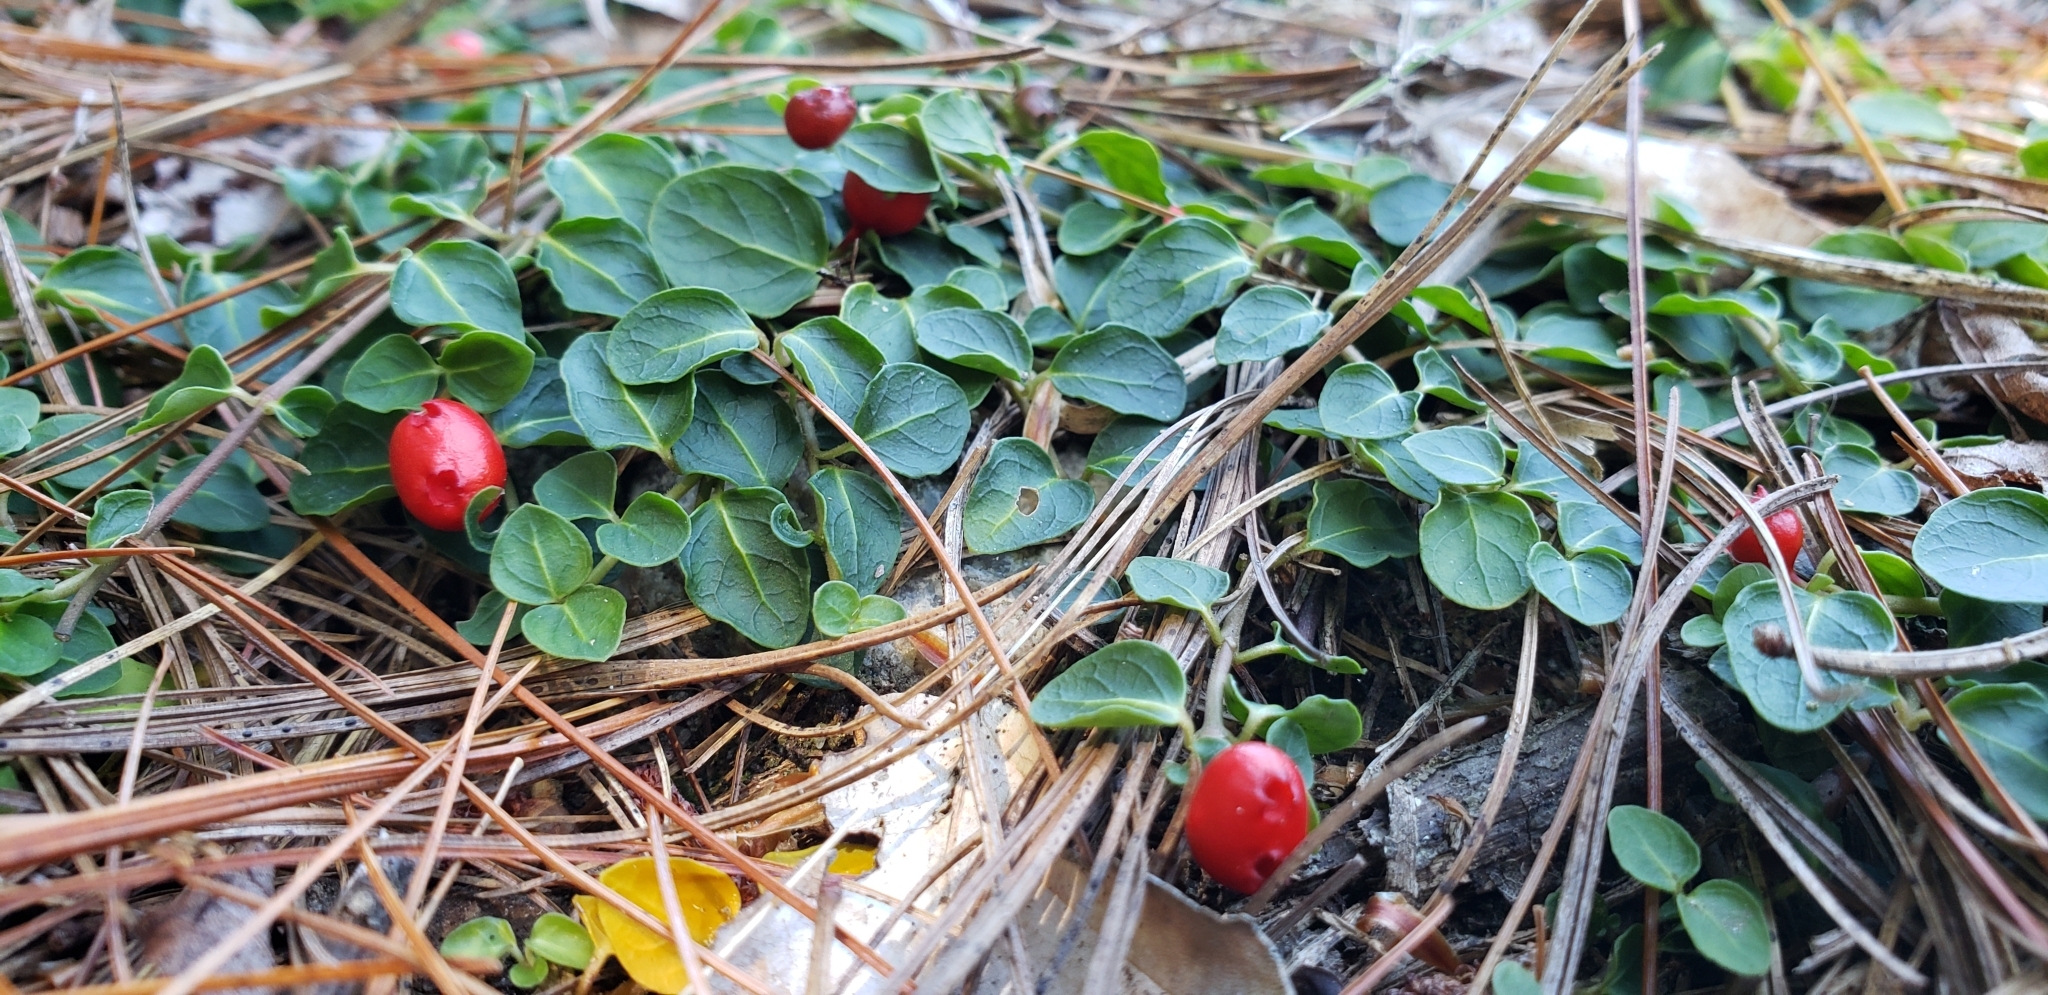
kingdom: Plantae
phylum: Tracheophyta
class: Magnoliopsida
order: Gentianales
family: Rubiaceae
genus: Mitchella
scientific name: Mitchella repens
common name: Partridge-berry
